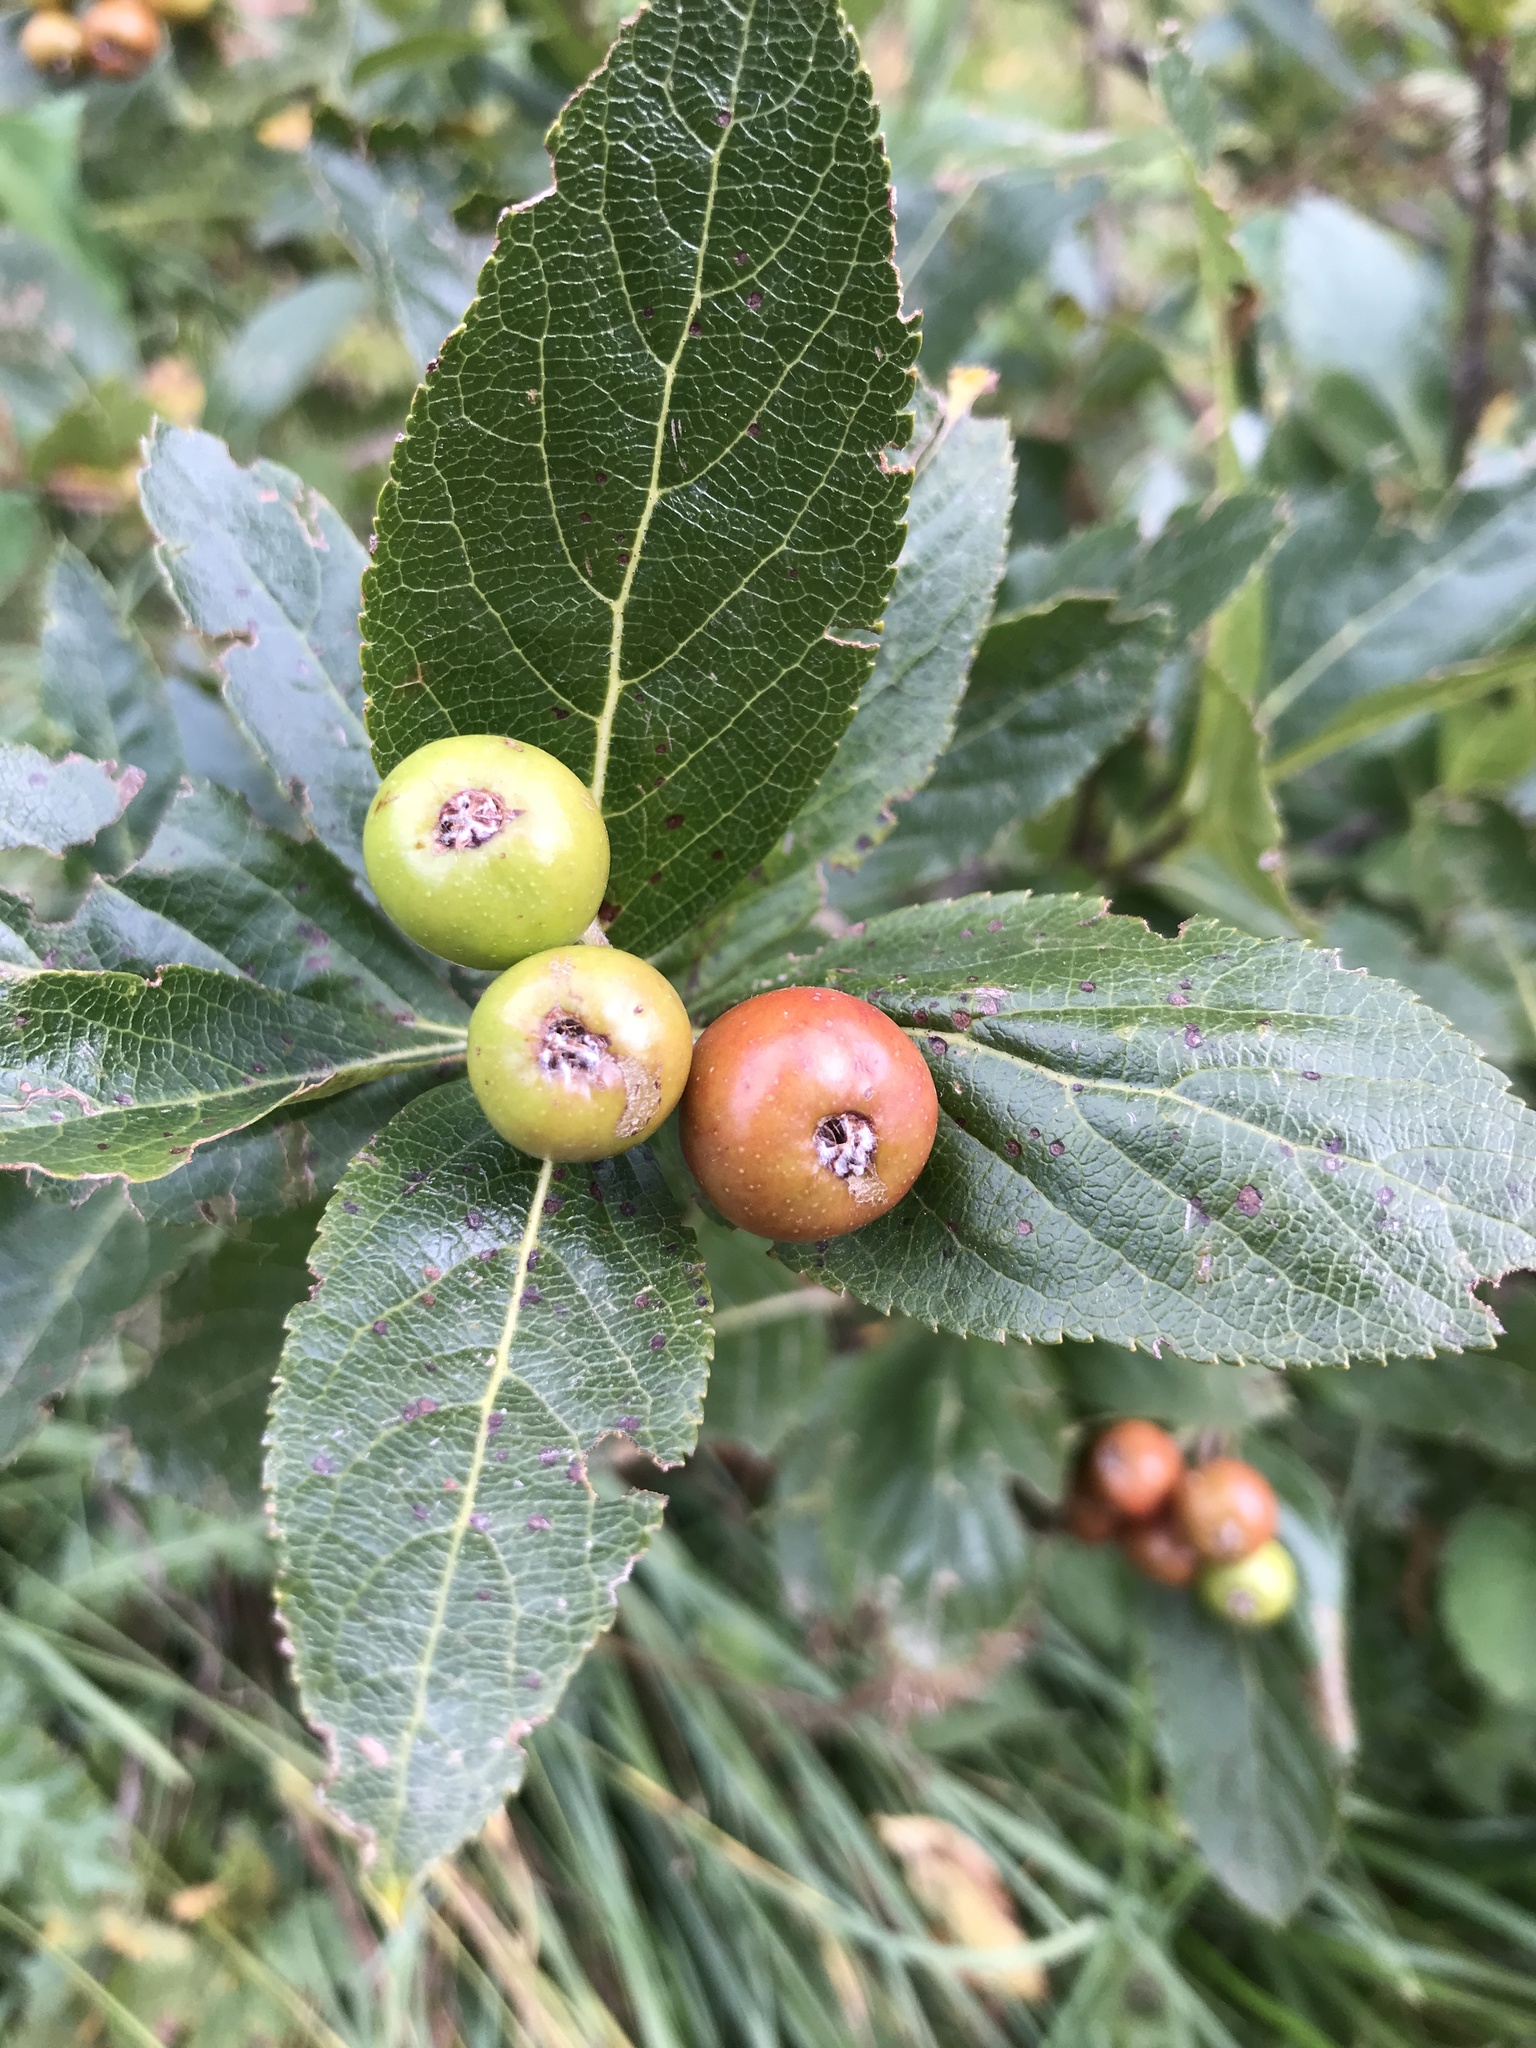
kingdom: Plantae
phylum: Tracheophyta
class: Magnoliopsida
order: Rosales
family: Rosaceae
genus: Chamaemespilus
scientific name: Chamaemespilus alpina
